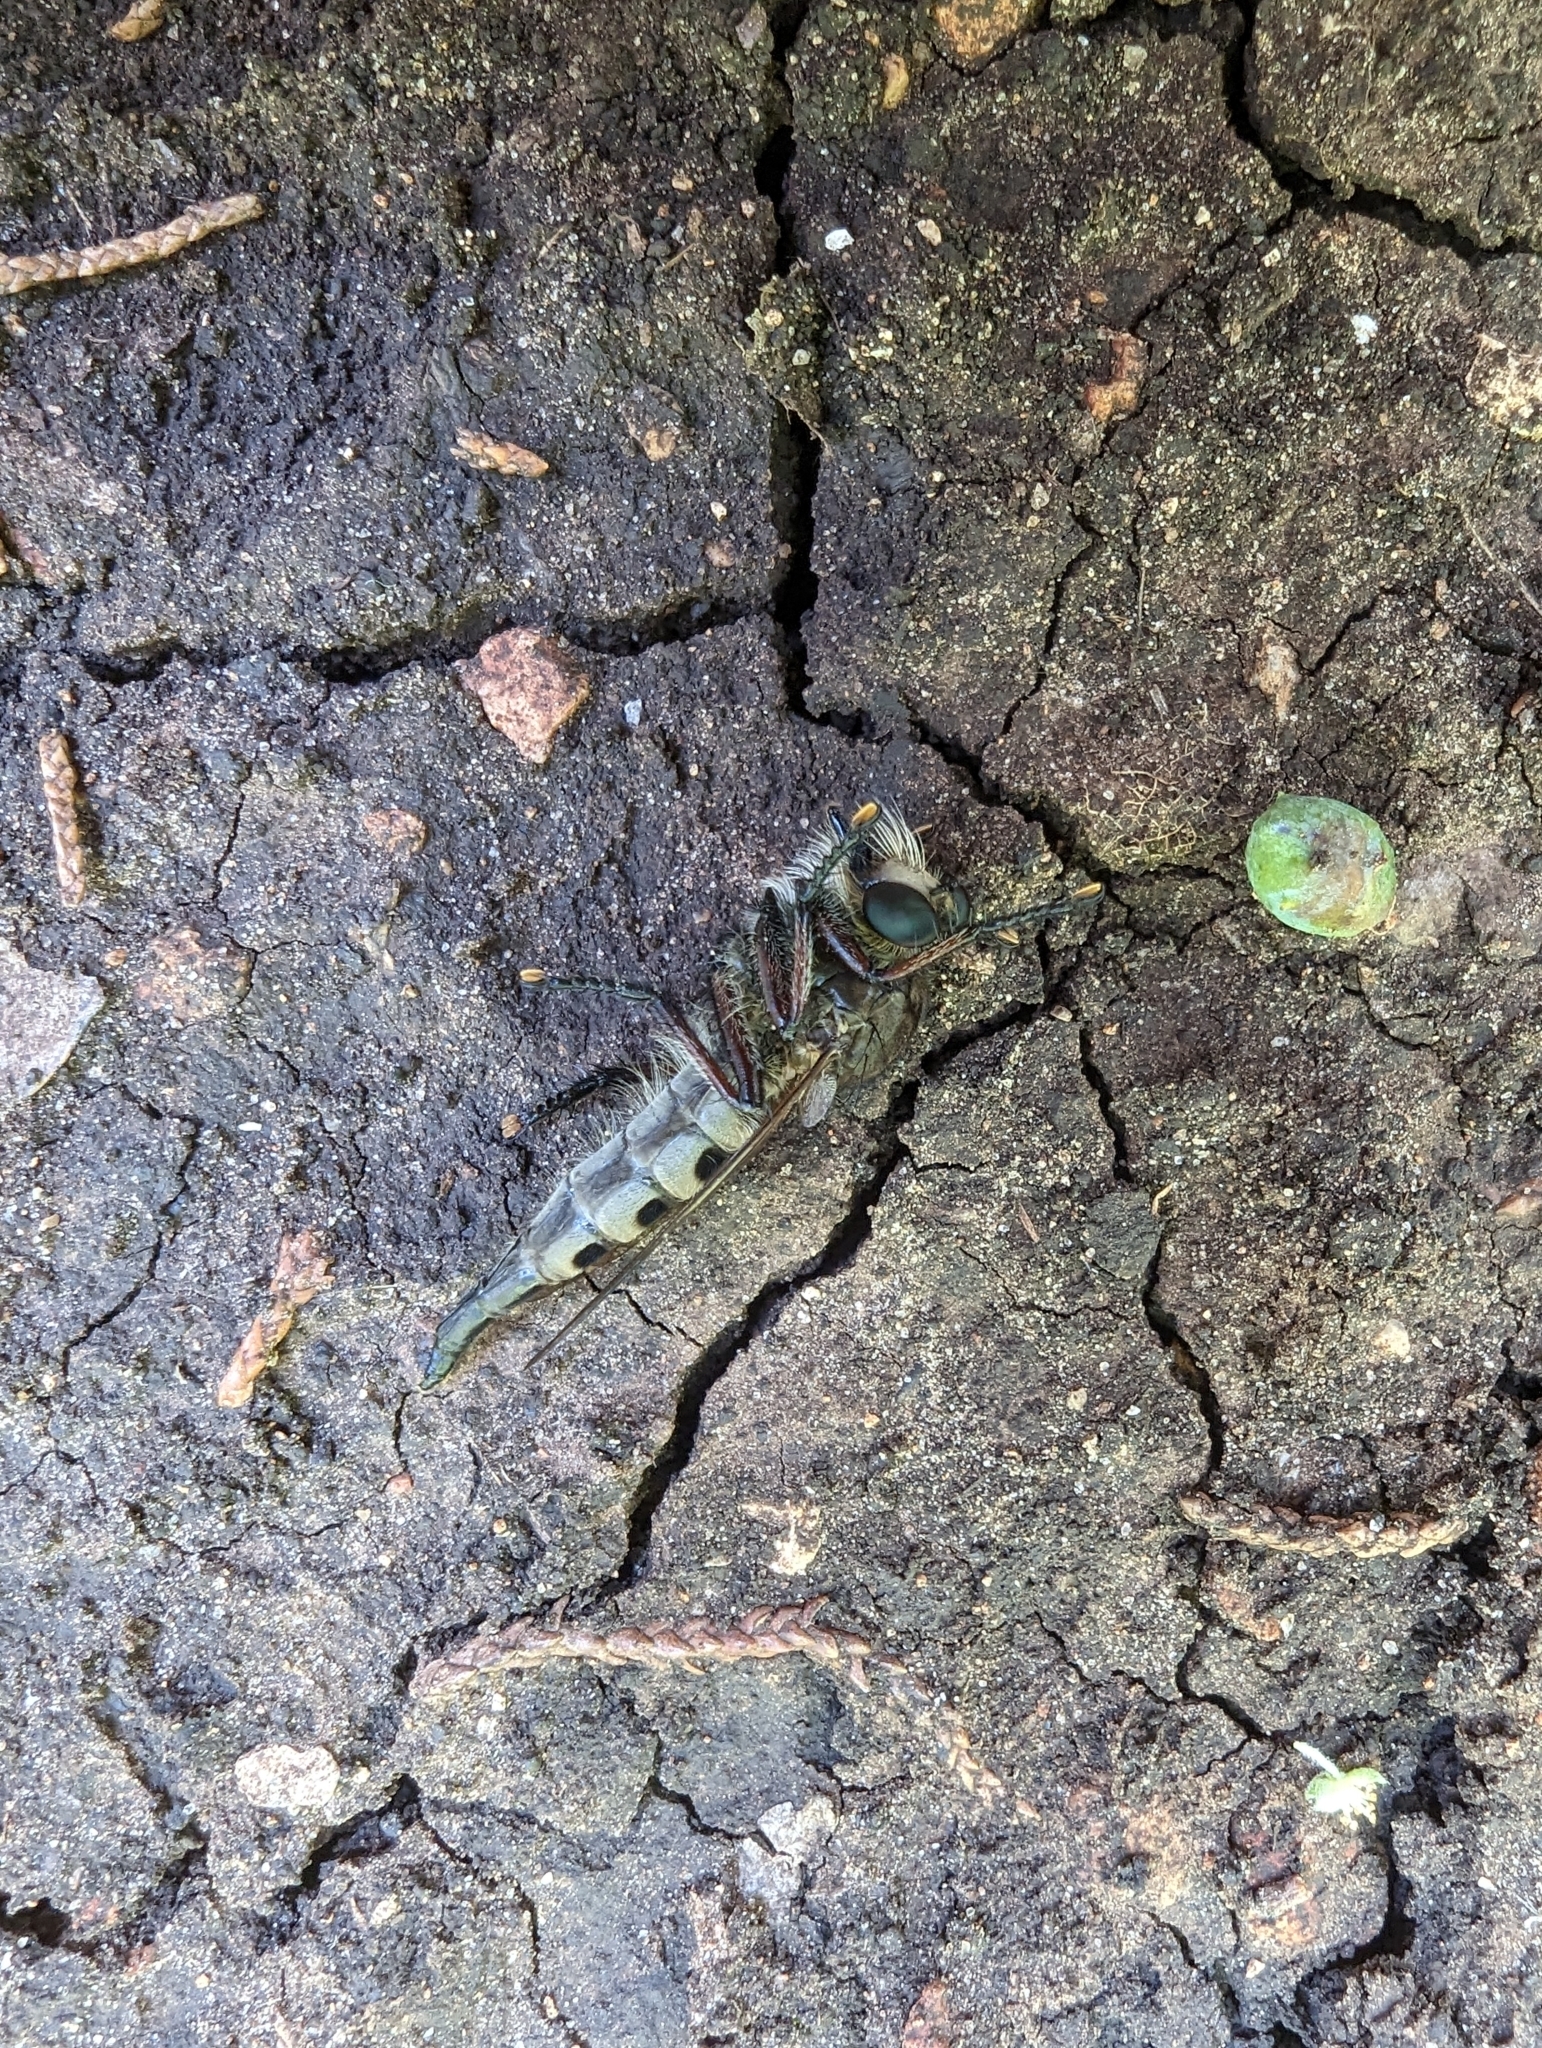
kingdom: Animalia
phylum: Arthropoda
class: Insecta
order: Diptera
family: Asilidae
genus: Promachus
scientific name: Promachus hinei
